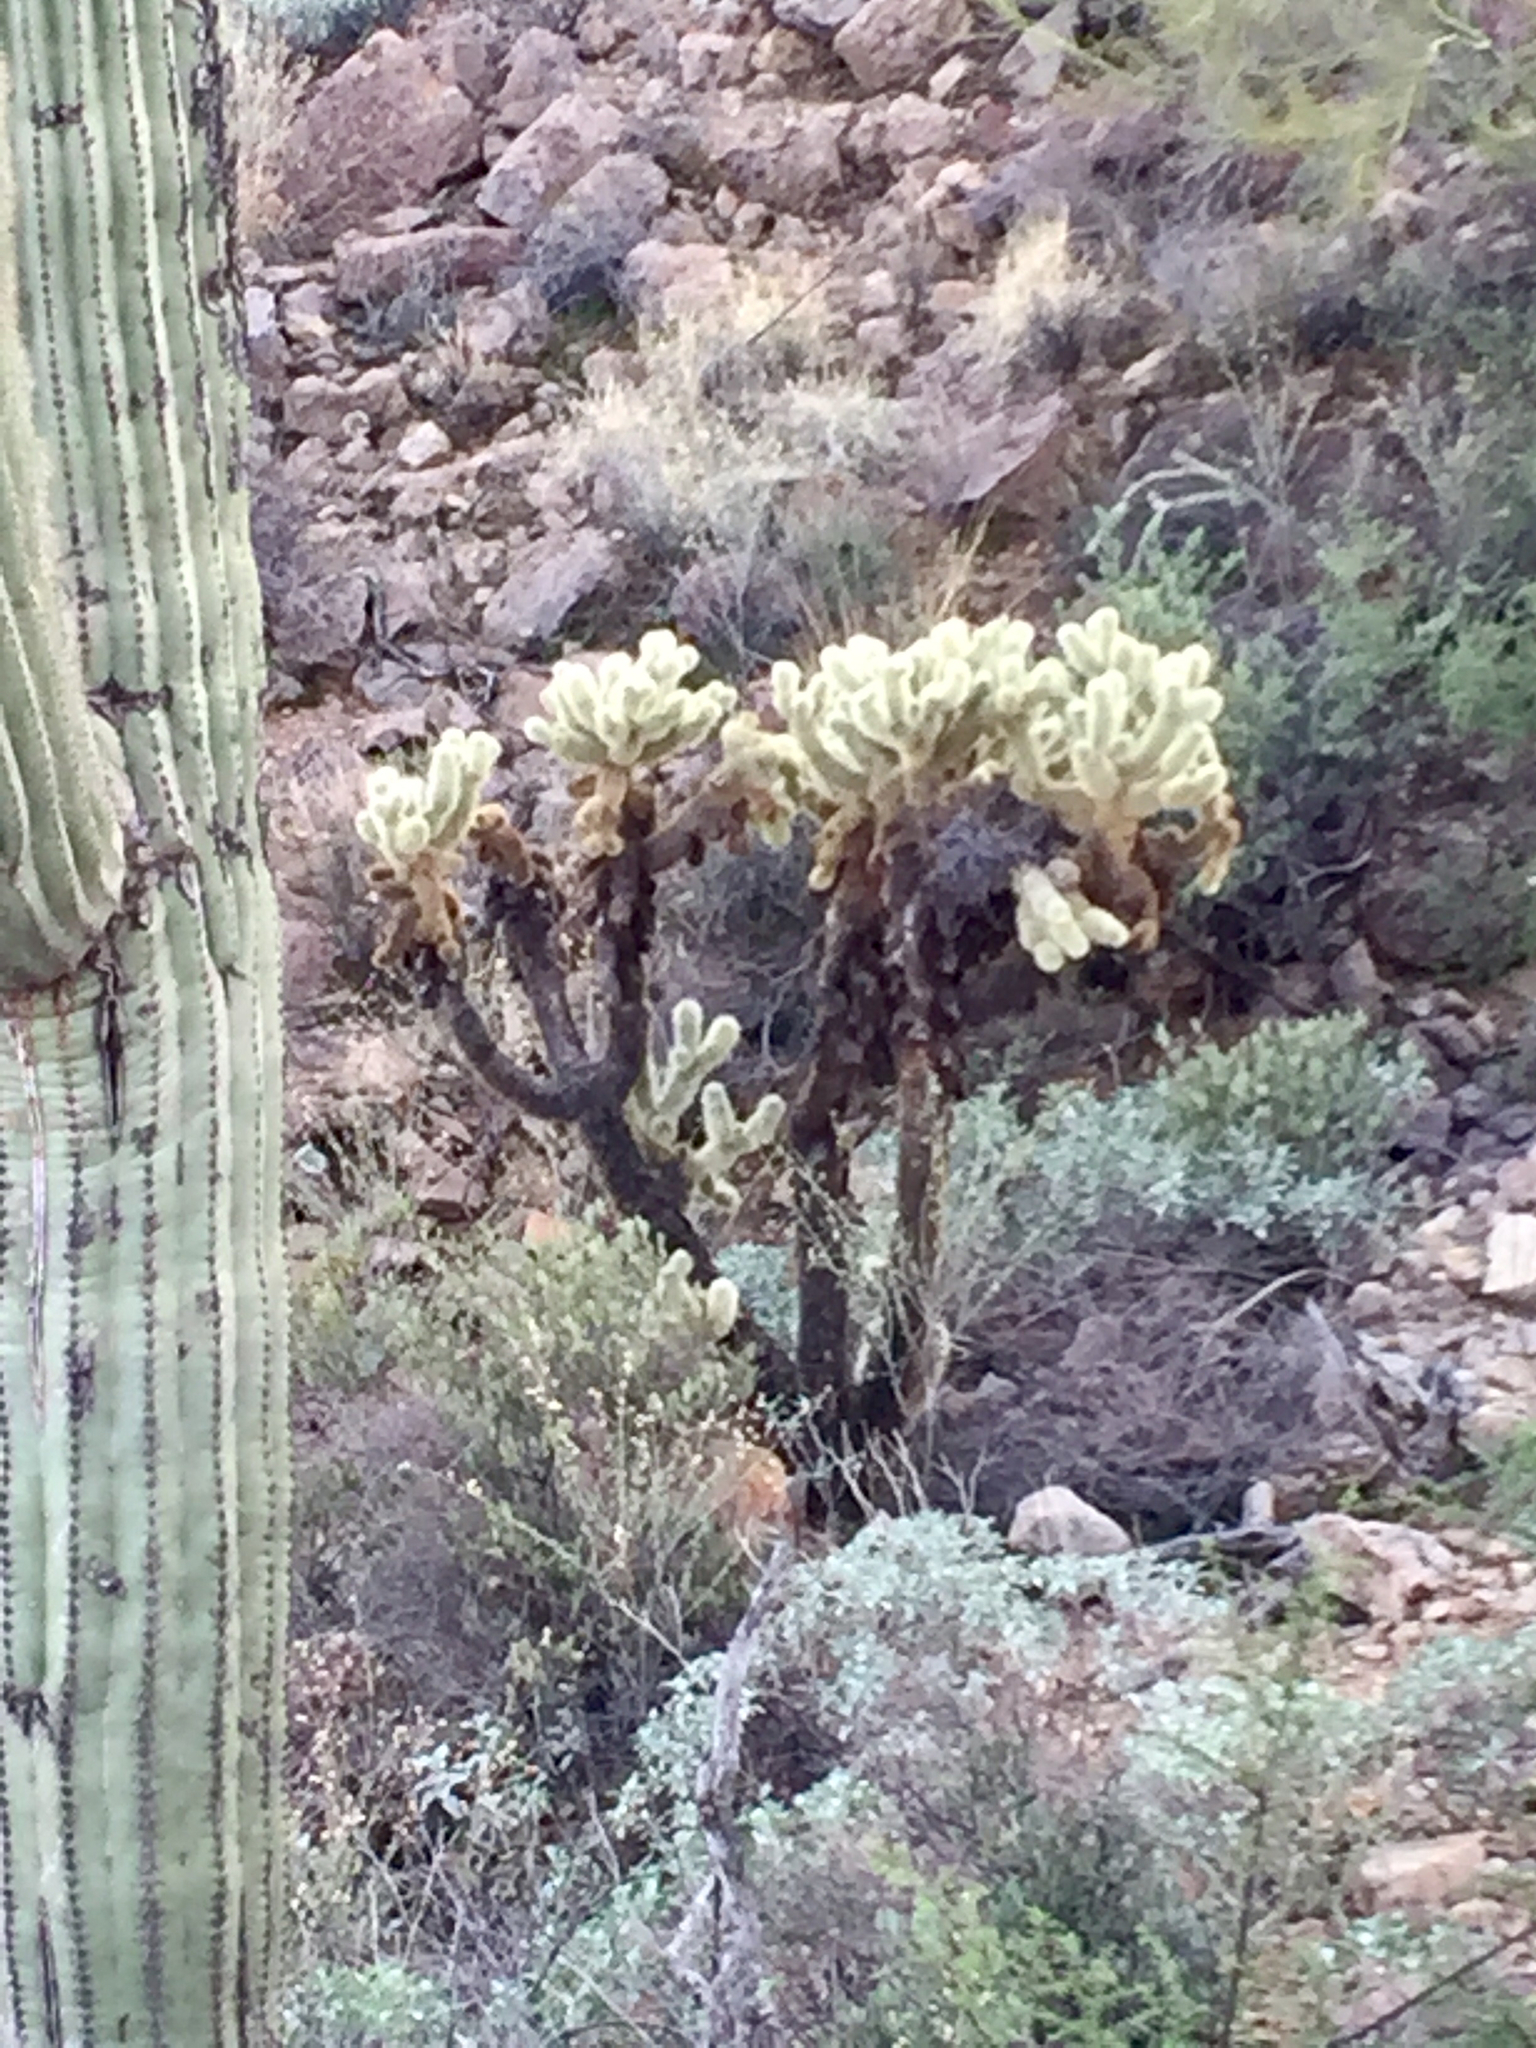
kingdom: Plantae
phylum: Tracheophyta
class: Magnoliopsida
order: Caryophyllales
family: Cactaceae
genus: Cylindropuntia
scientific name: Cylindropuntia fosbergii
